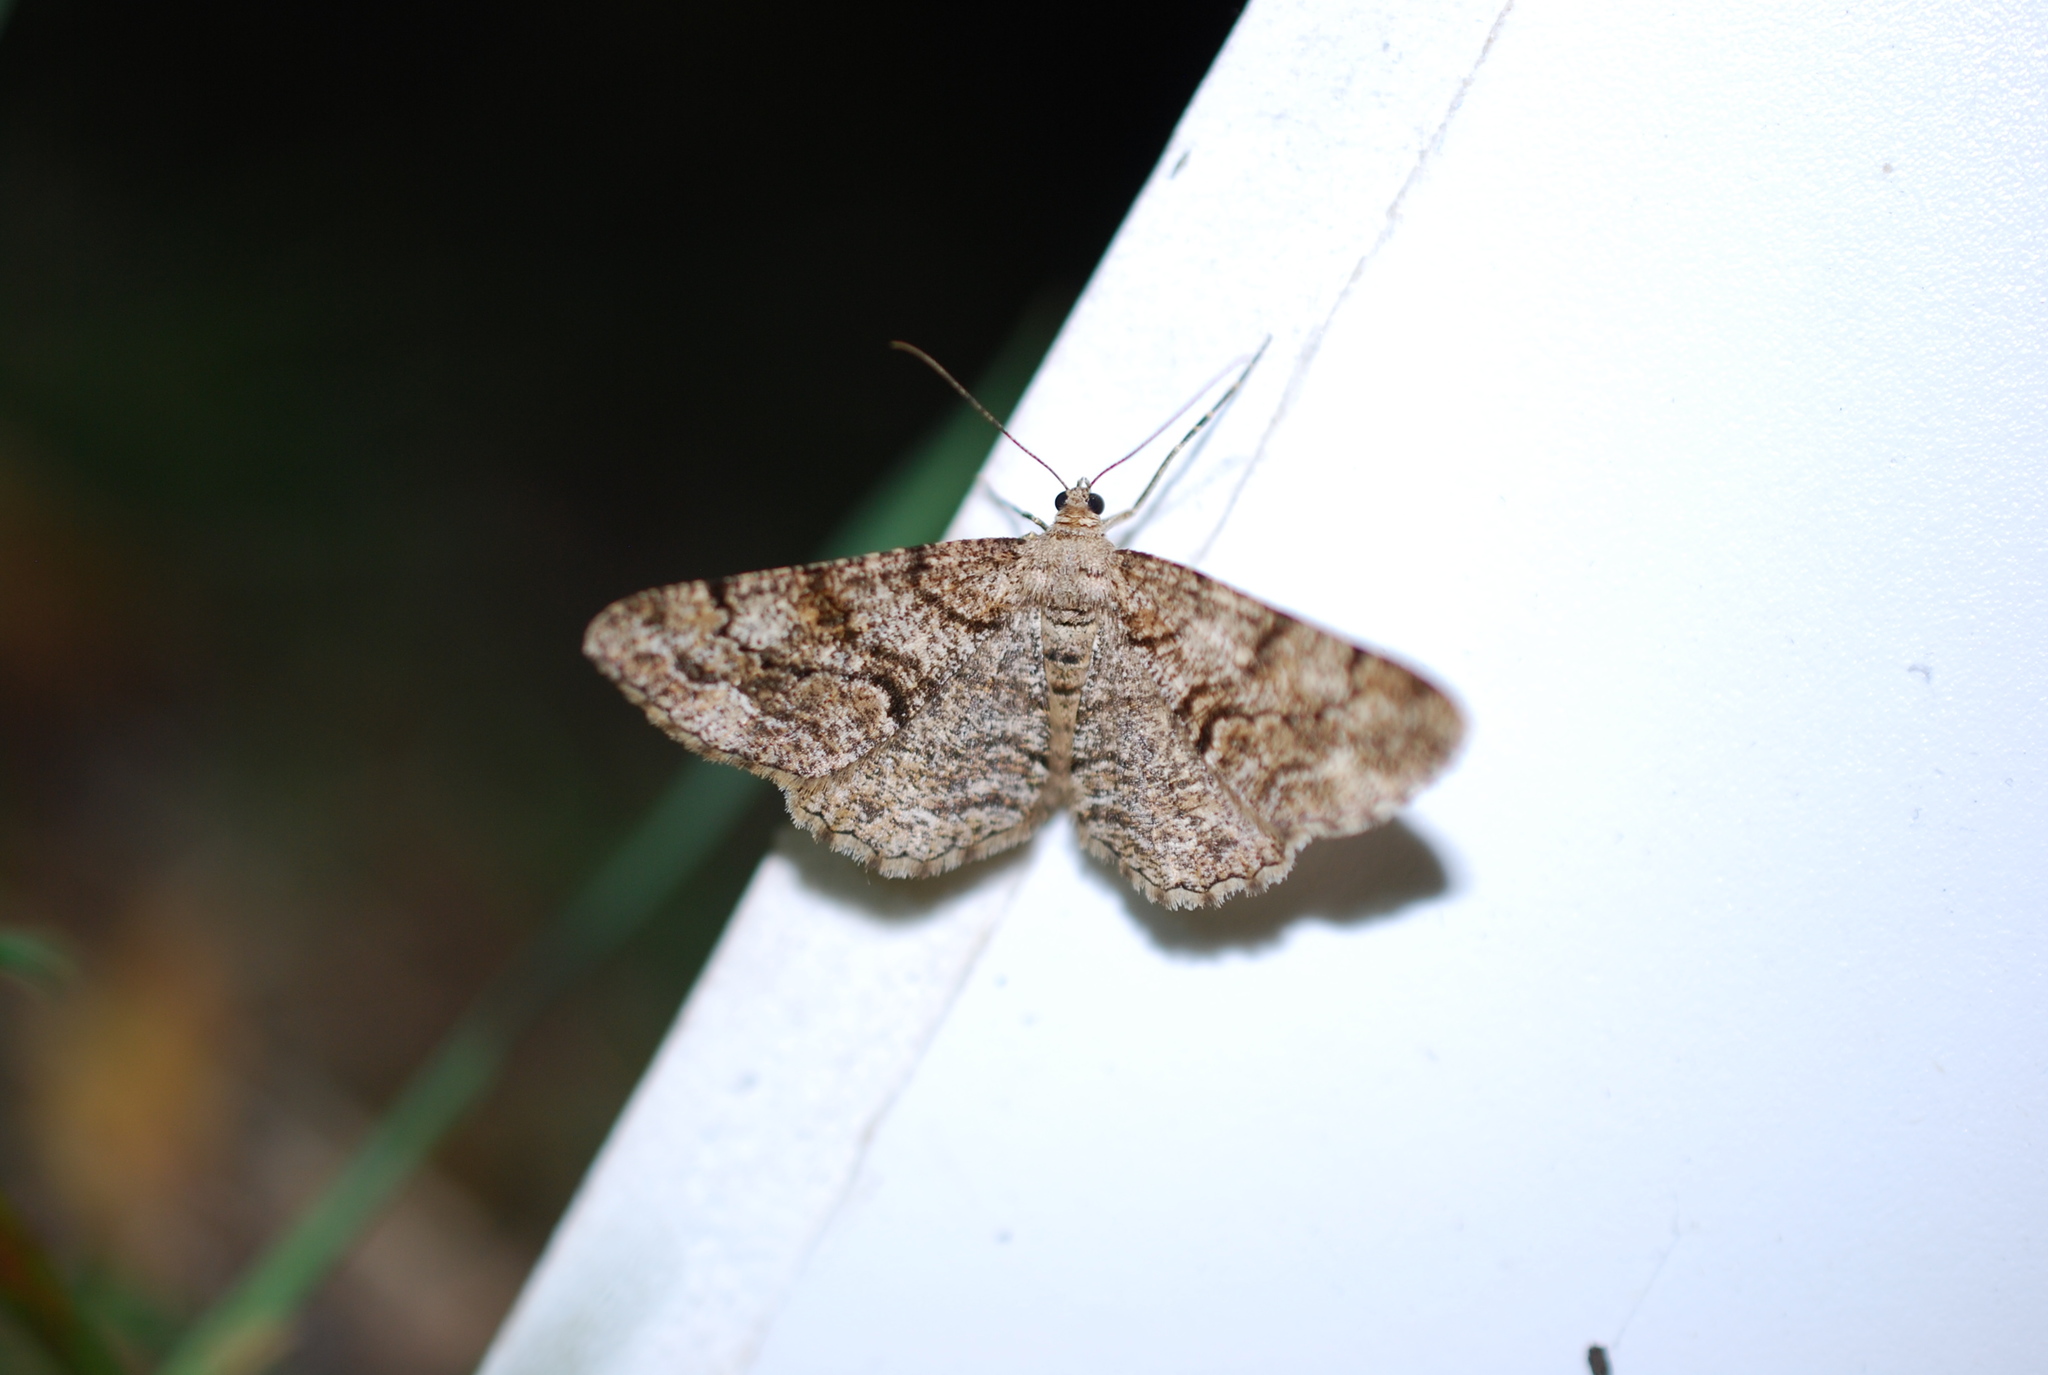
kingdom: Animalia
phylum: Arthropoda
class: Insecta
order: Lepidoptera
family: Geometridae
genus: Peribatodes
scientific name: Peribatodes rhomboidaria
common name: Willow beauty
